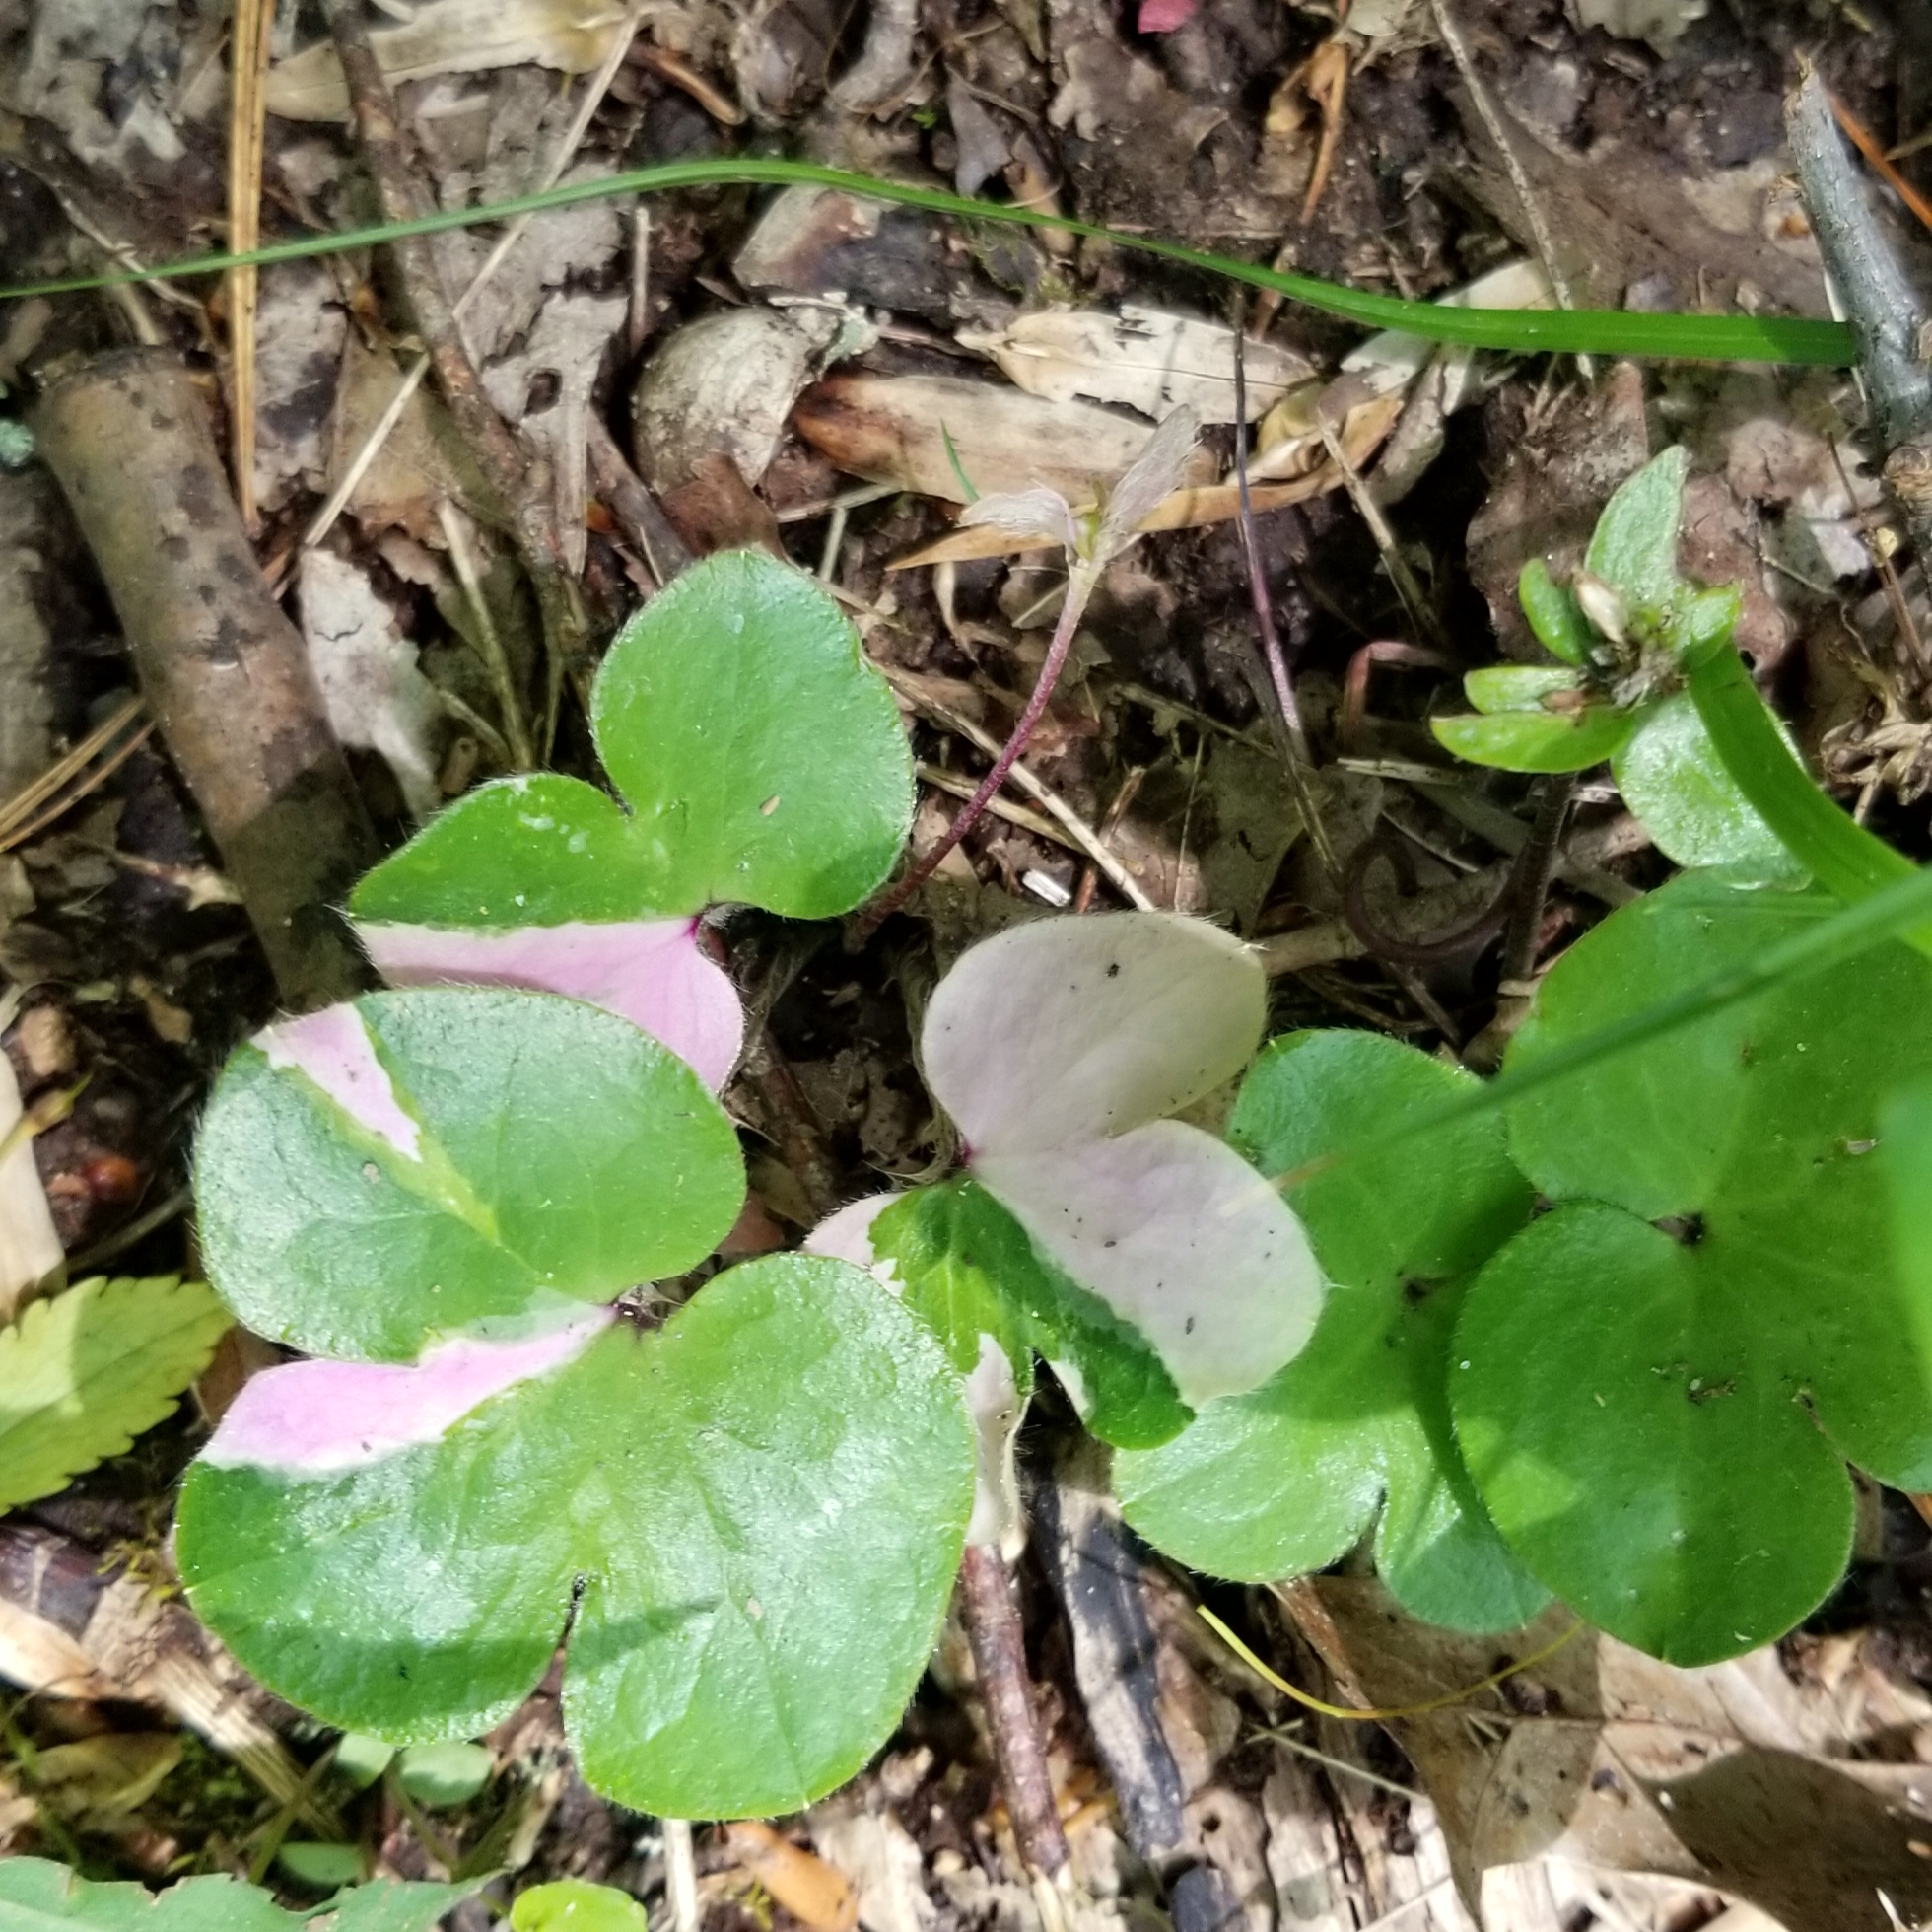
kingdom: Plantae
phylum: Tracheophyta
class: Magnoliopsida
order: Ranunculales
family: Ranunculaceae
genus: Hepatica
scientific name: Hepatica americana
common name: American hepatica
